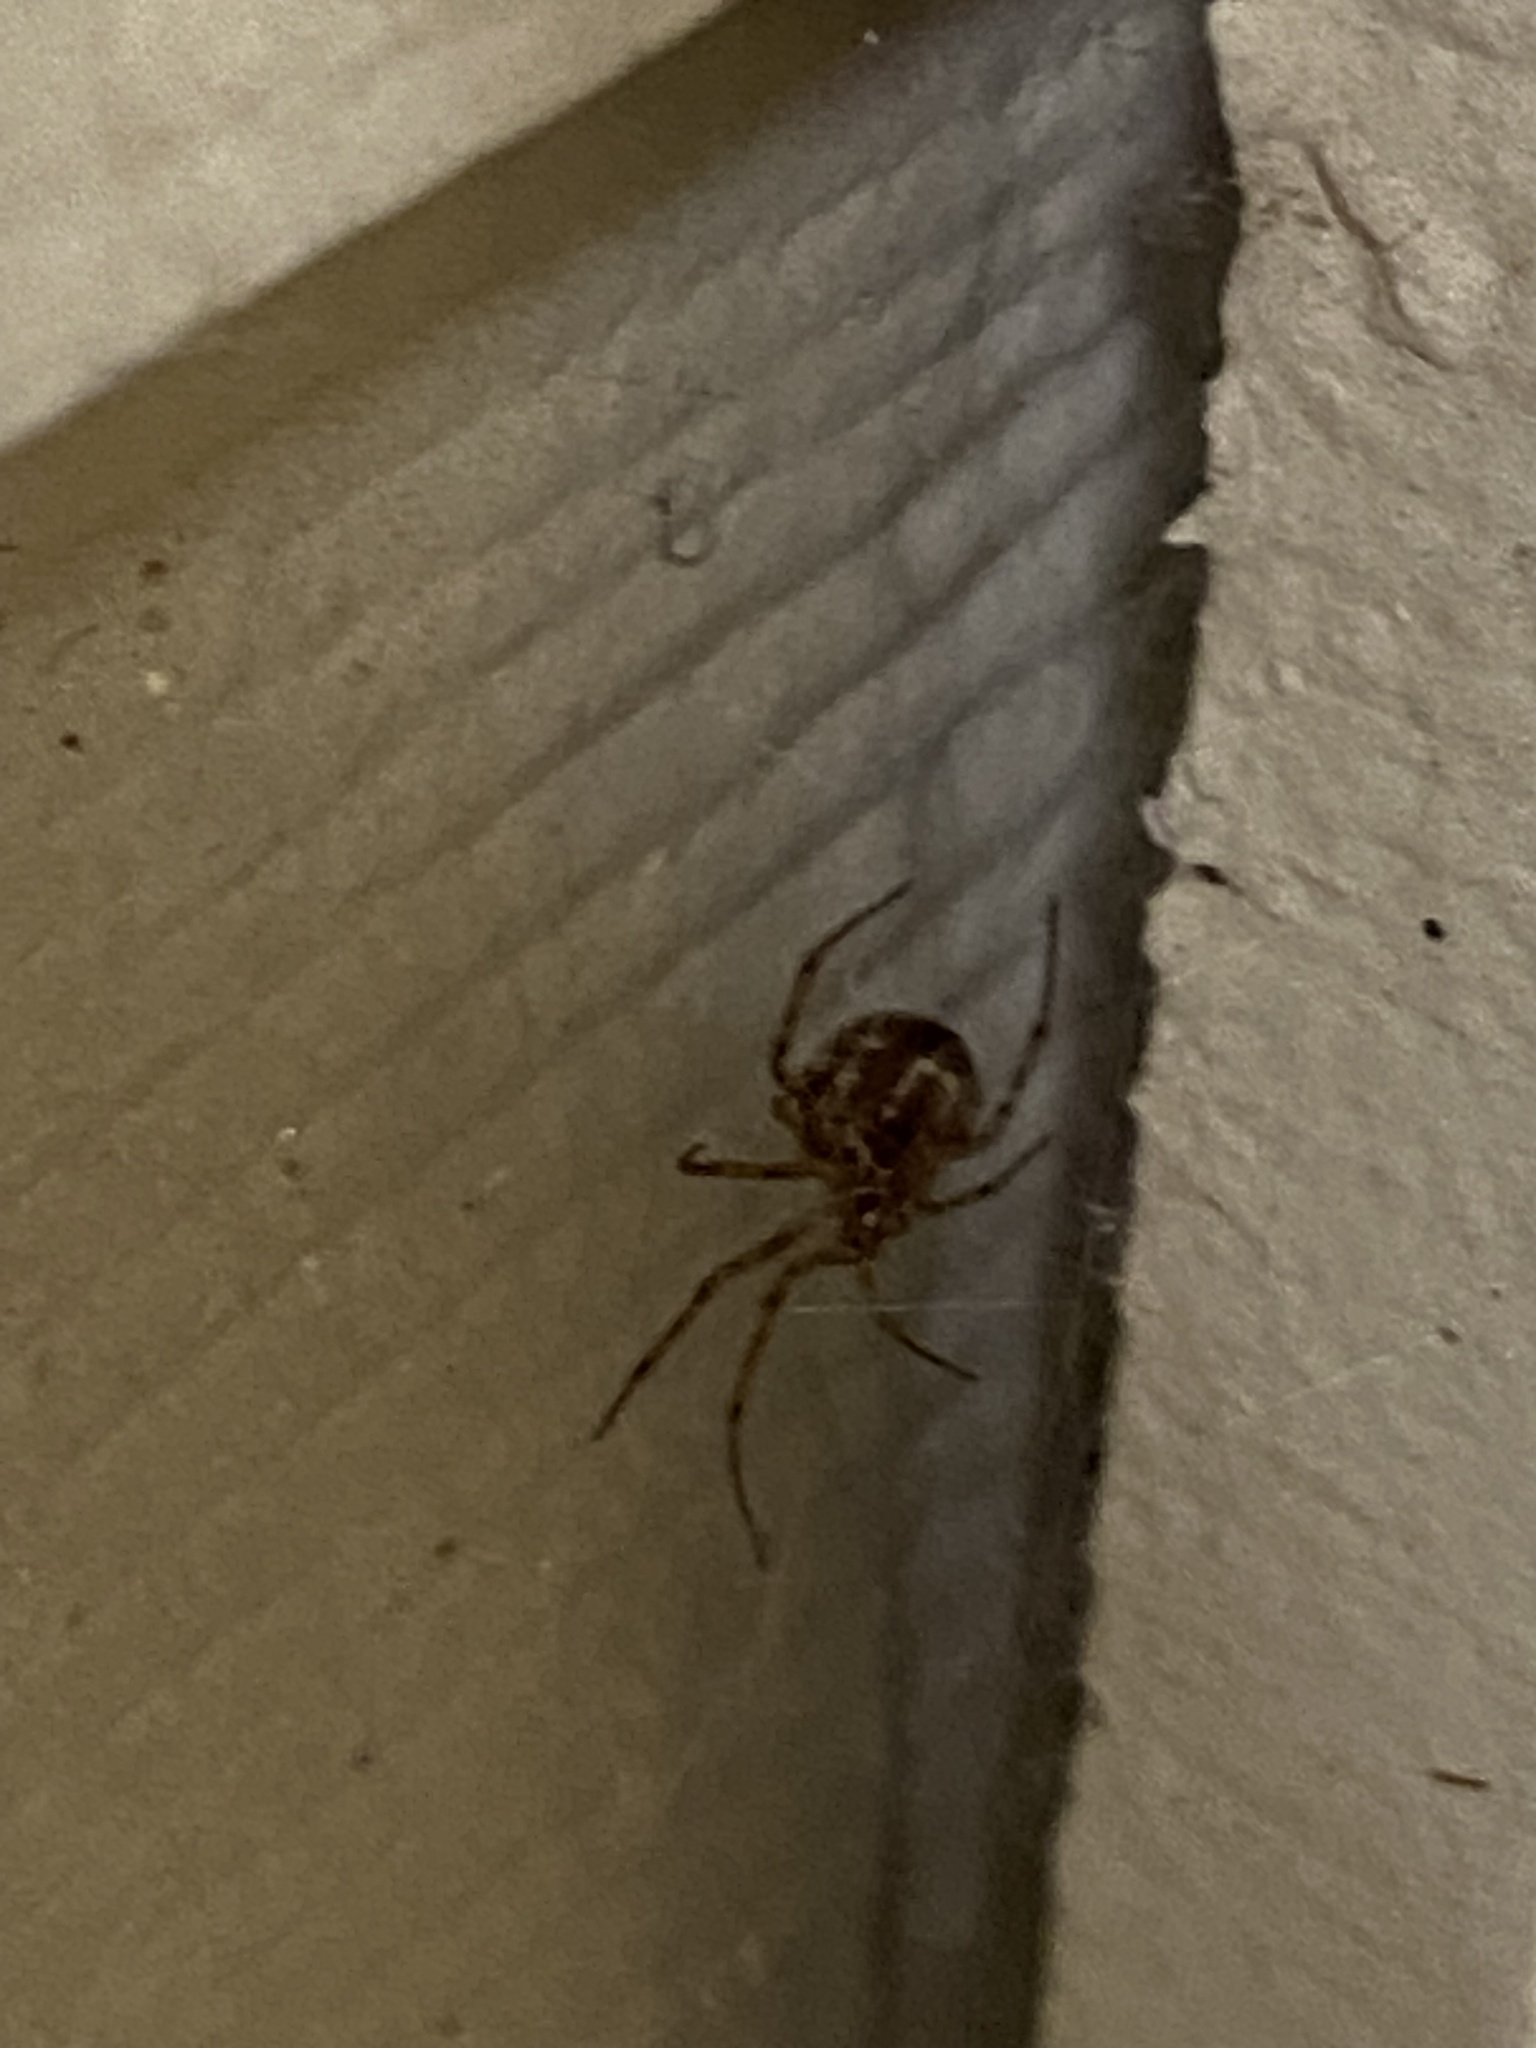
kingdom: Animalia
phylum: Arthropoda
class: Arachnida
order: Araneae
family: Theridiidae
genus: Steatoda
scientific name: Steatoda triangulosa
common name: Triangulate bud spider
